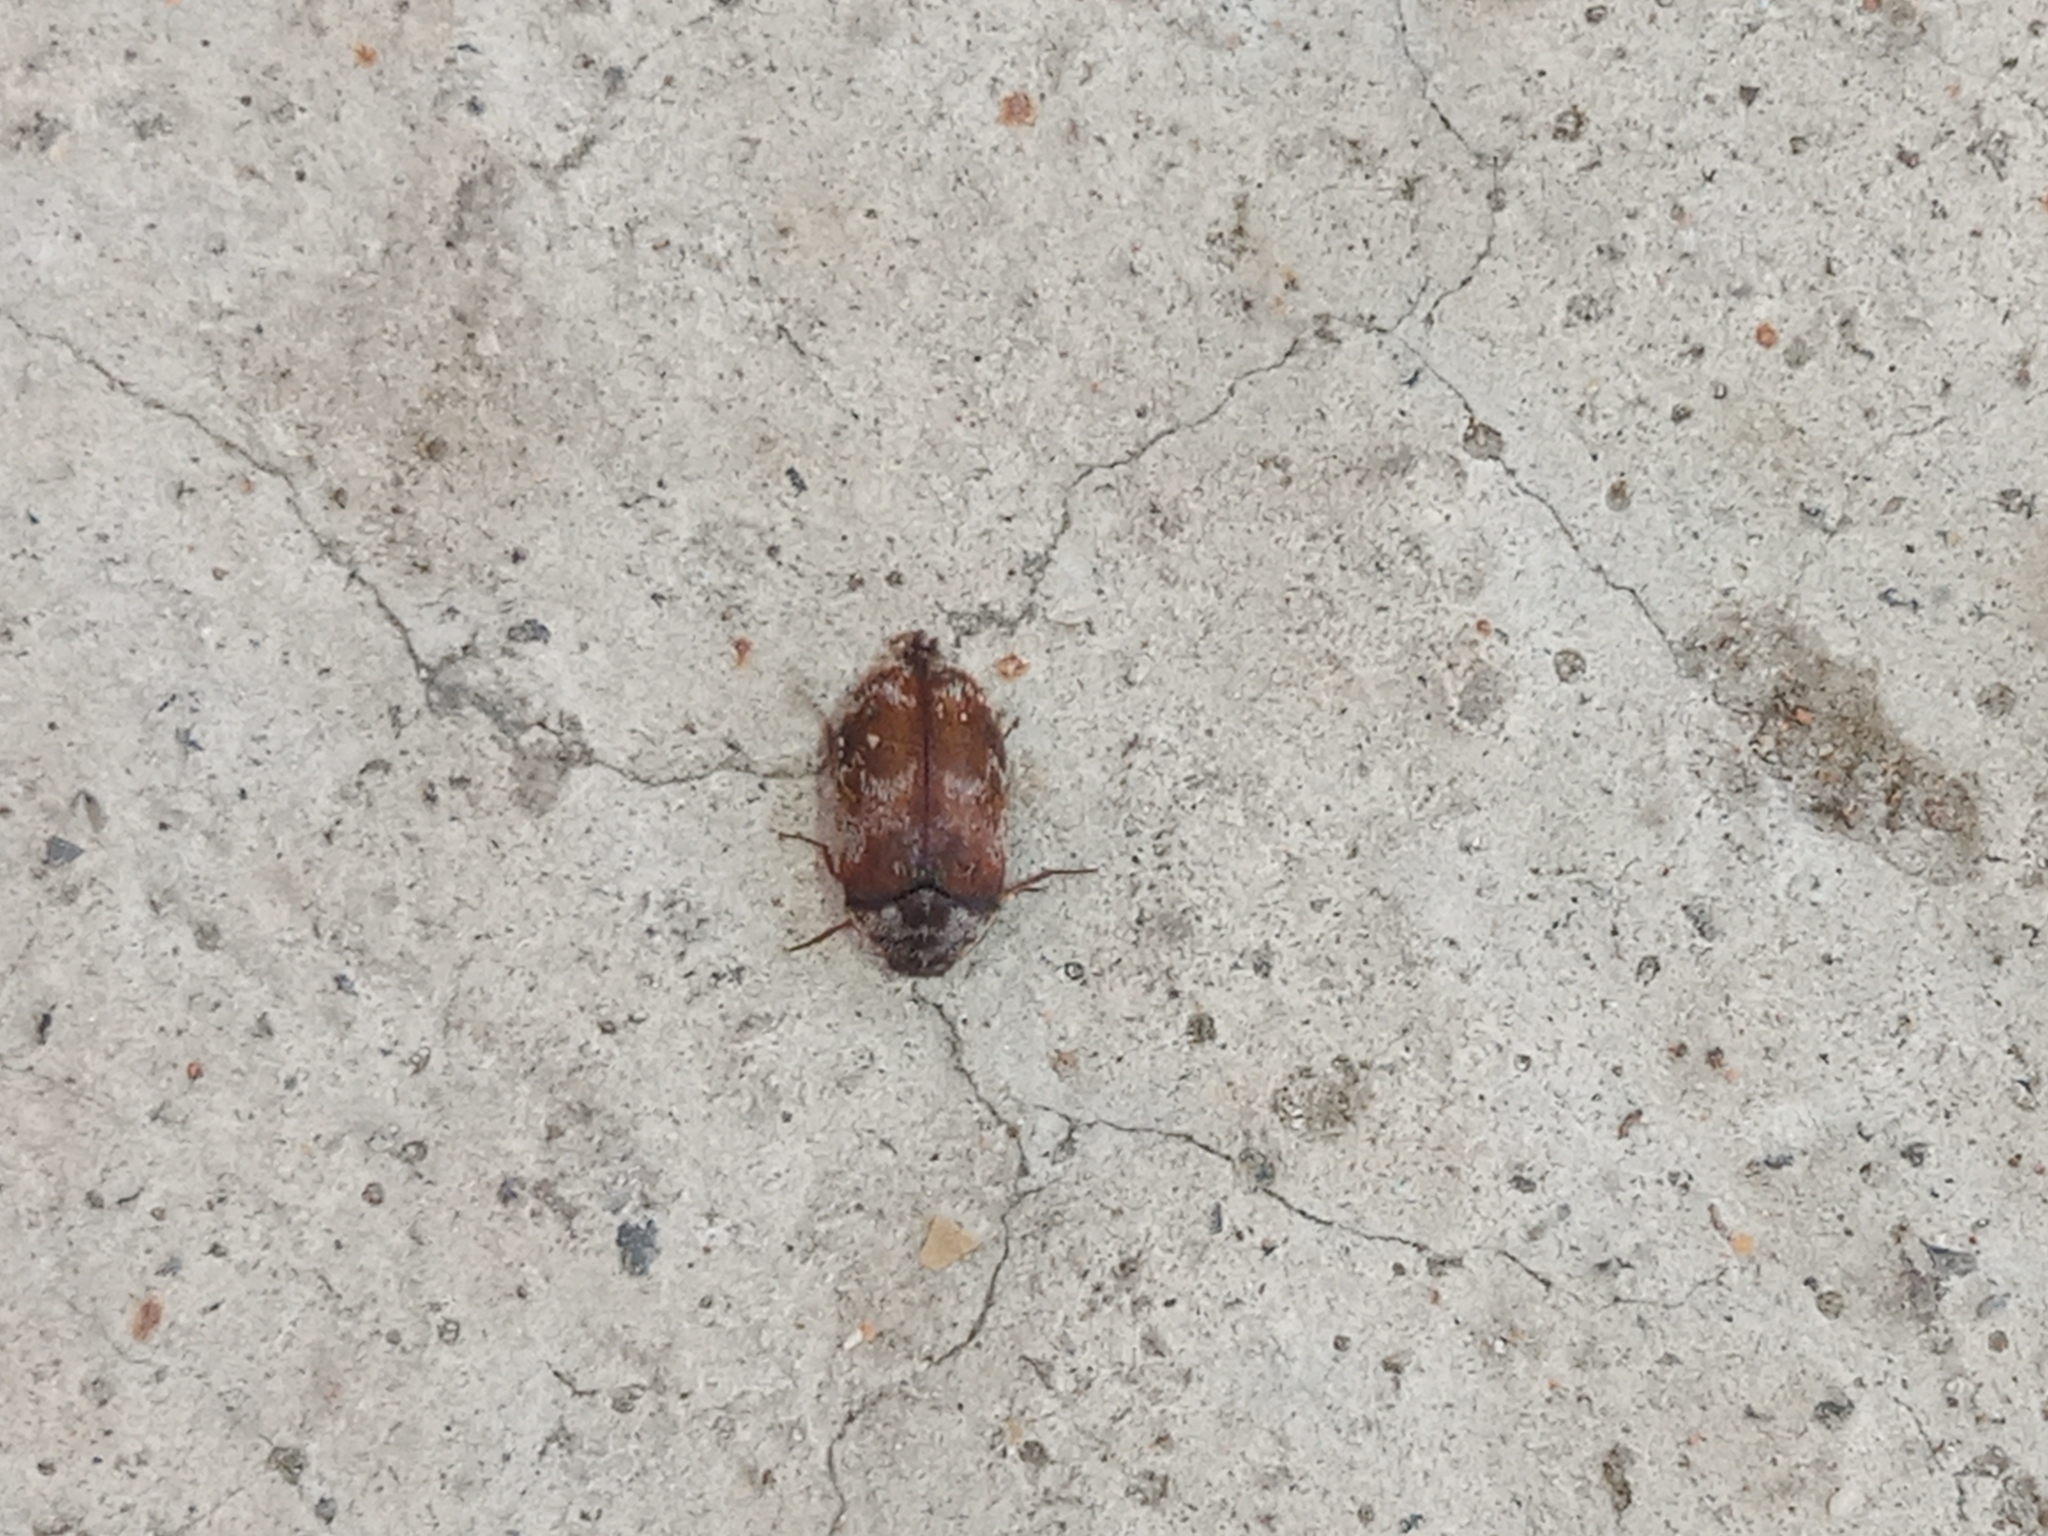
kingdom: Animalia
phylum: Arthropoda
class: Insecta
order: Coleoptera
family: Dermestidae
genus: Trogoderma
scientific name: Trogoderma sternale
